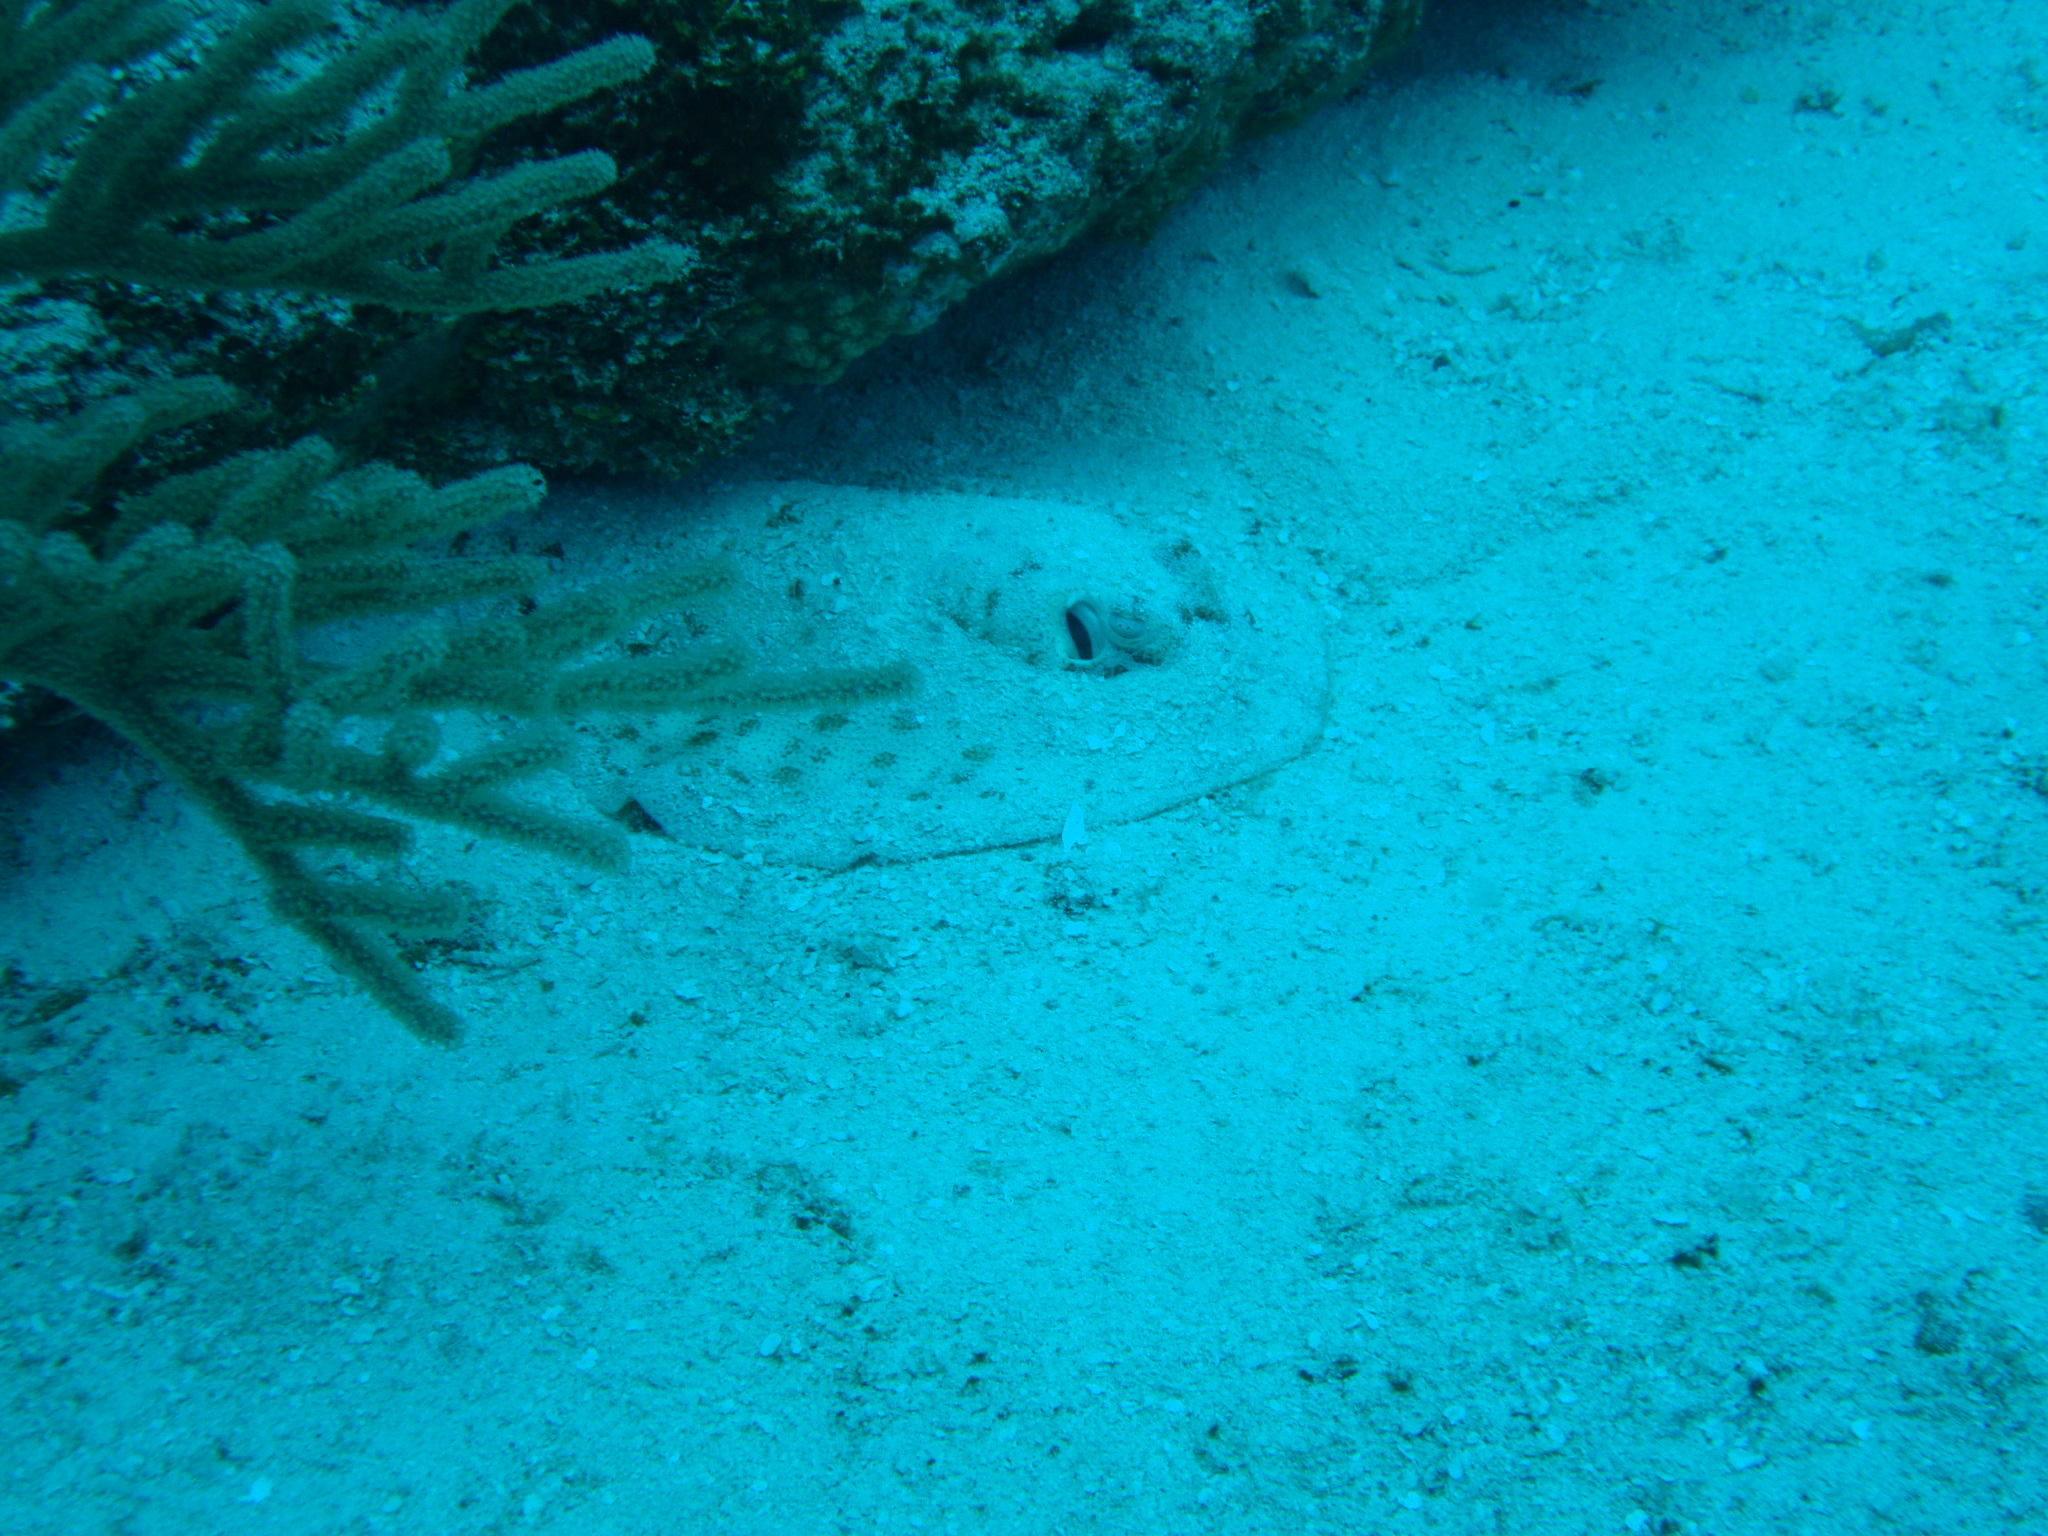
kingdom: Animalia
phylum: Chordata
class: Elasmobranchii
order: Myliobatiformes
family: Urotrygonidae
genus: Urobatis
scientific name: Urobatis jamaicensis
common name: Yellow stingray
